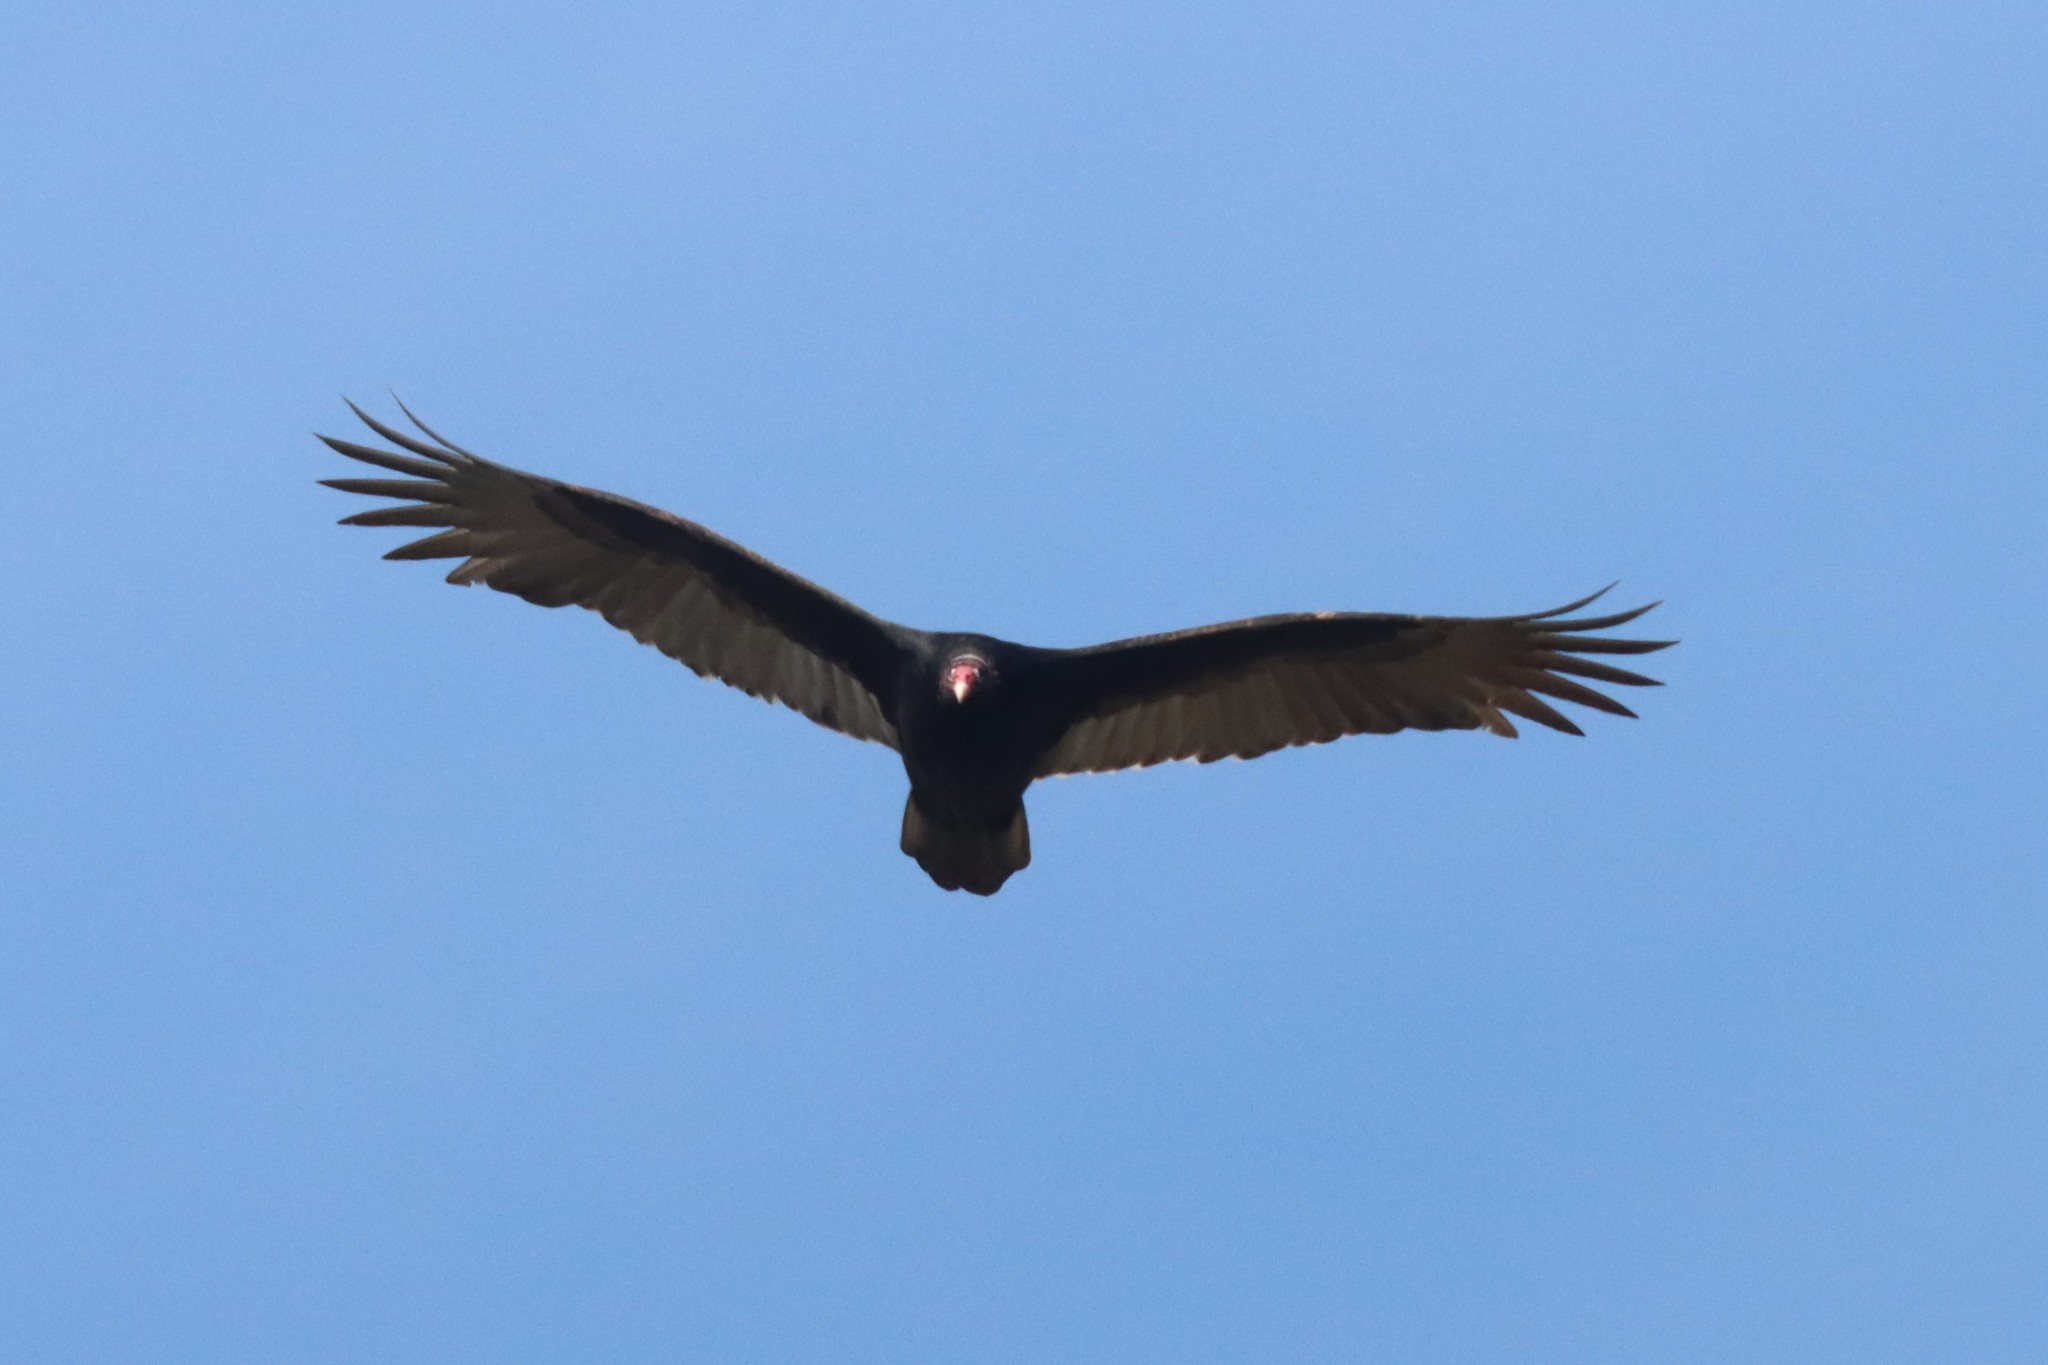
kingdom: Animalia
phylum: Chordata
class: Aves
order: Accipitriformes
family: Cathartidae
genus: Cathartes
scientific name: Cathartes aura
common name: Turkey vulture
